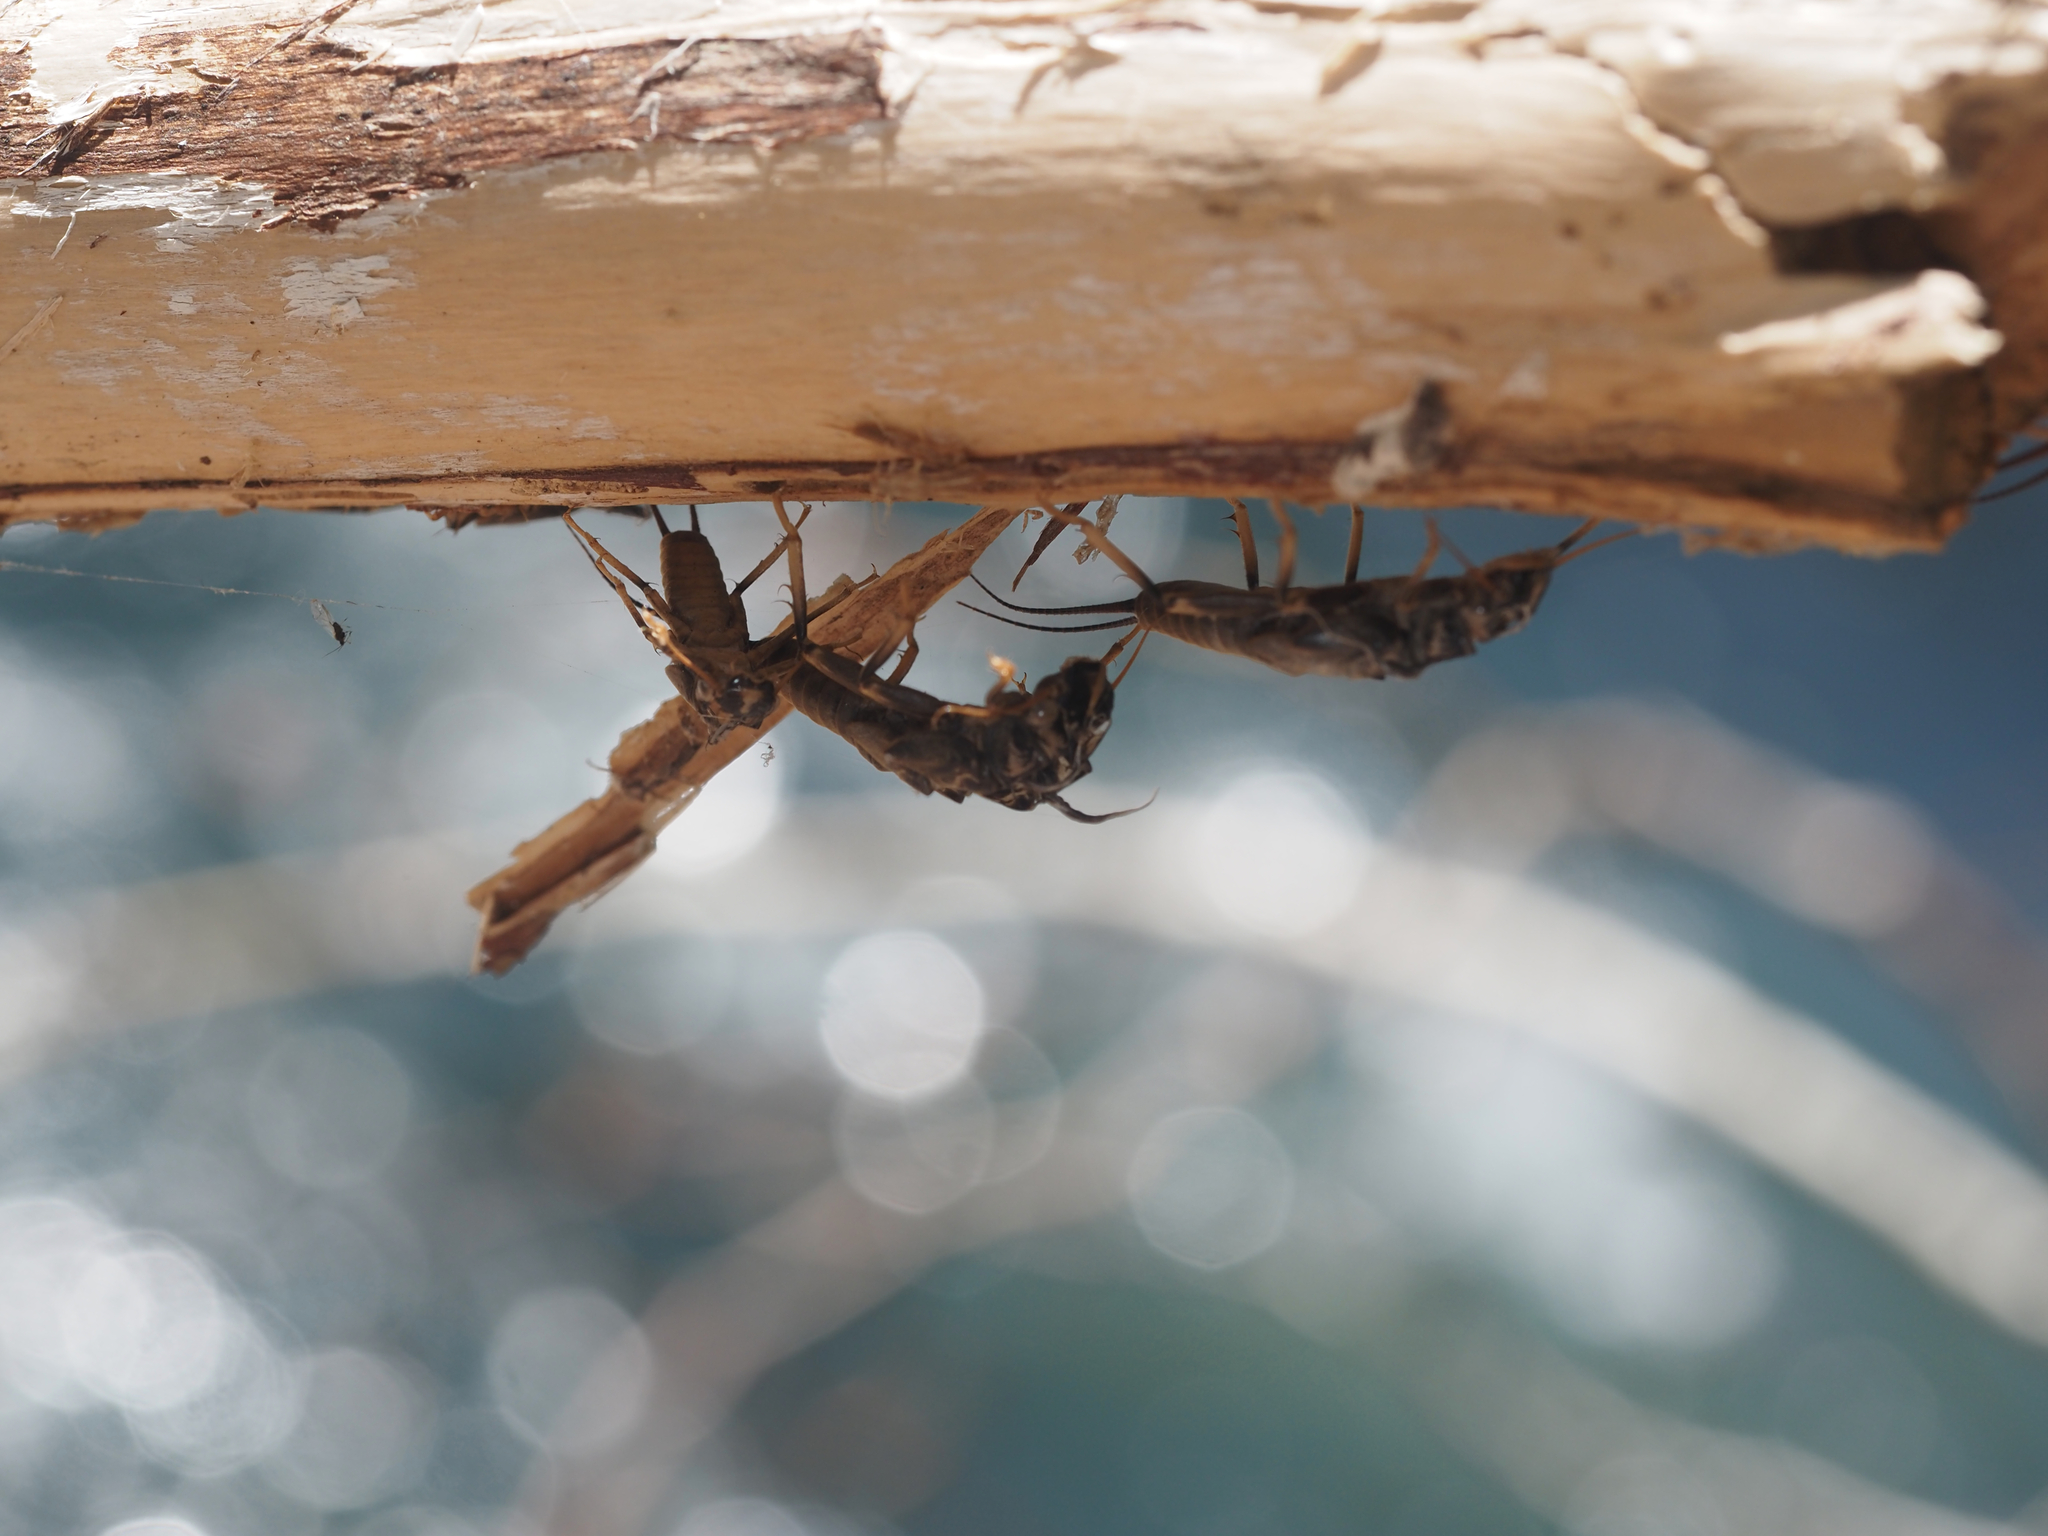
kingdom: Animalia
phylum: Arthropoda
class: Insecta
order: Plecoptera
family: Perlidae
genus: Hesperoperla
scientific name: Hesperoperla pacifica
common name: Golden stone
